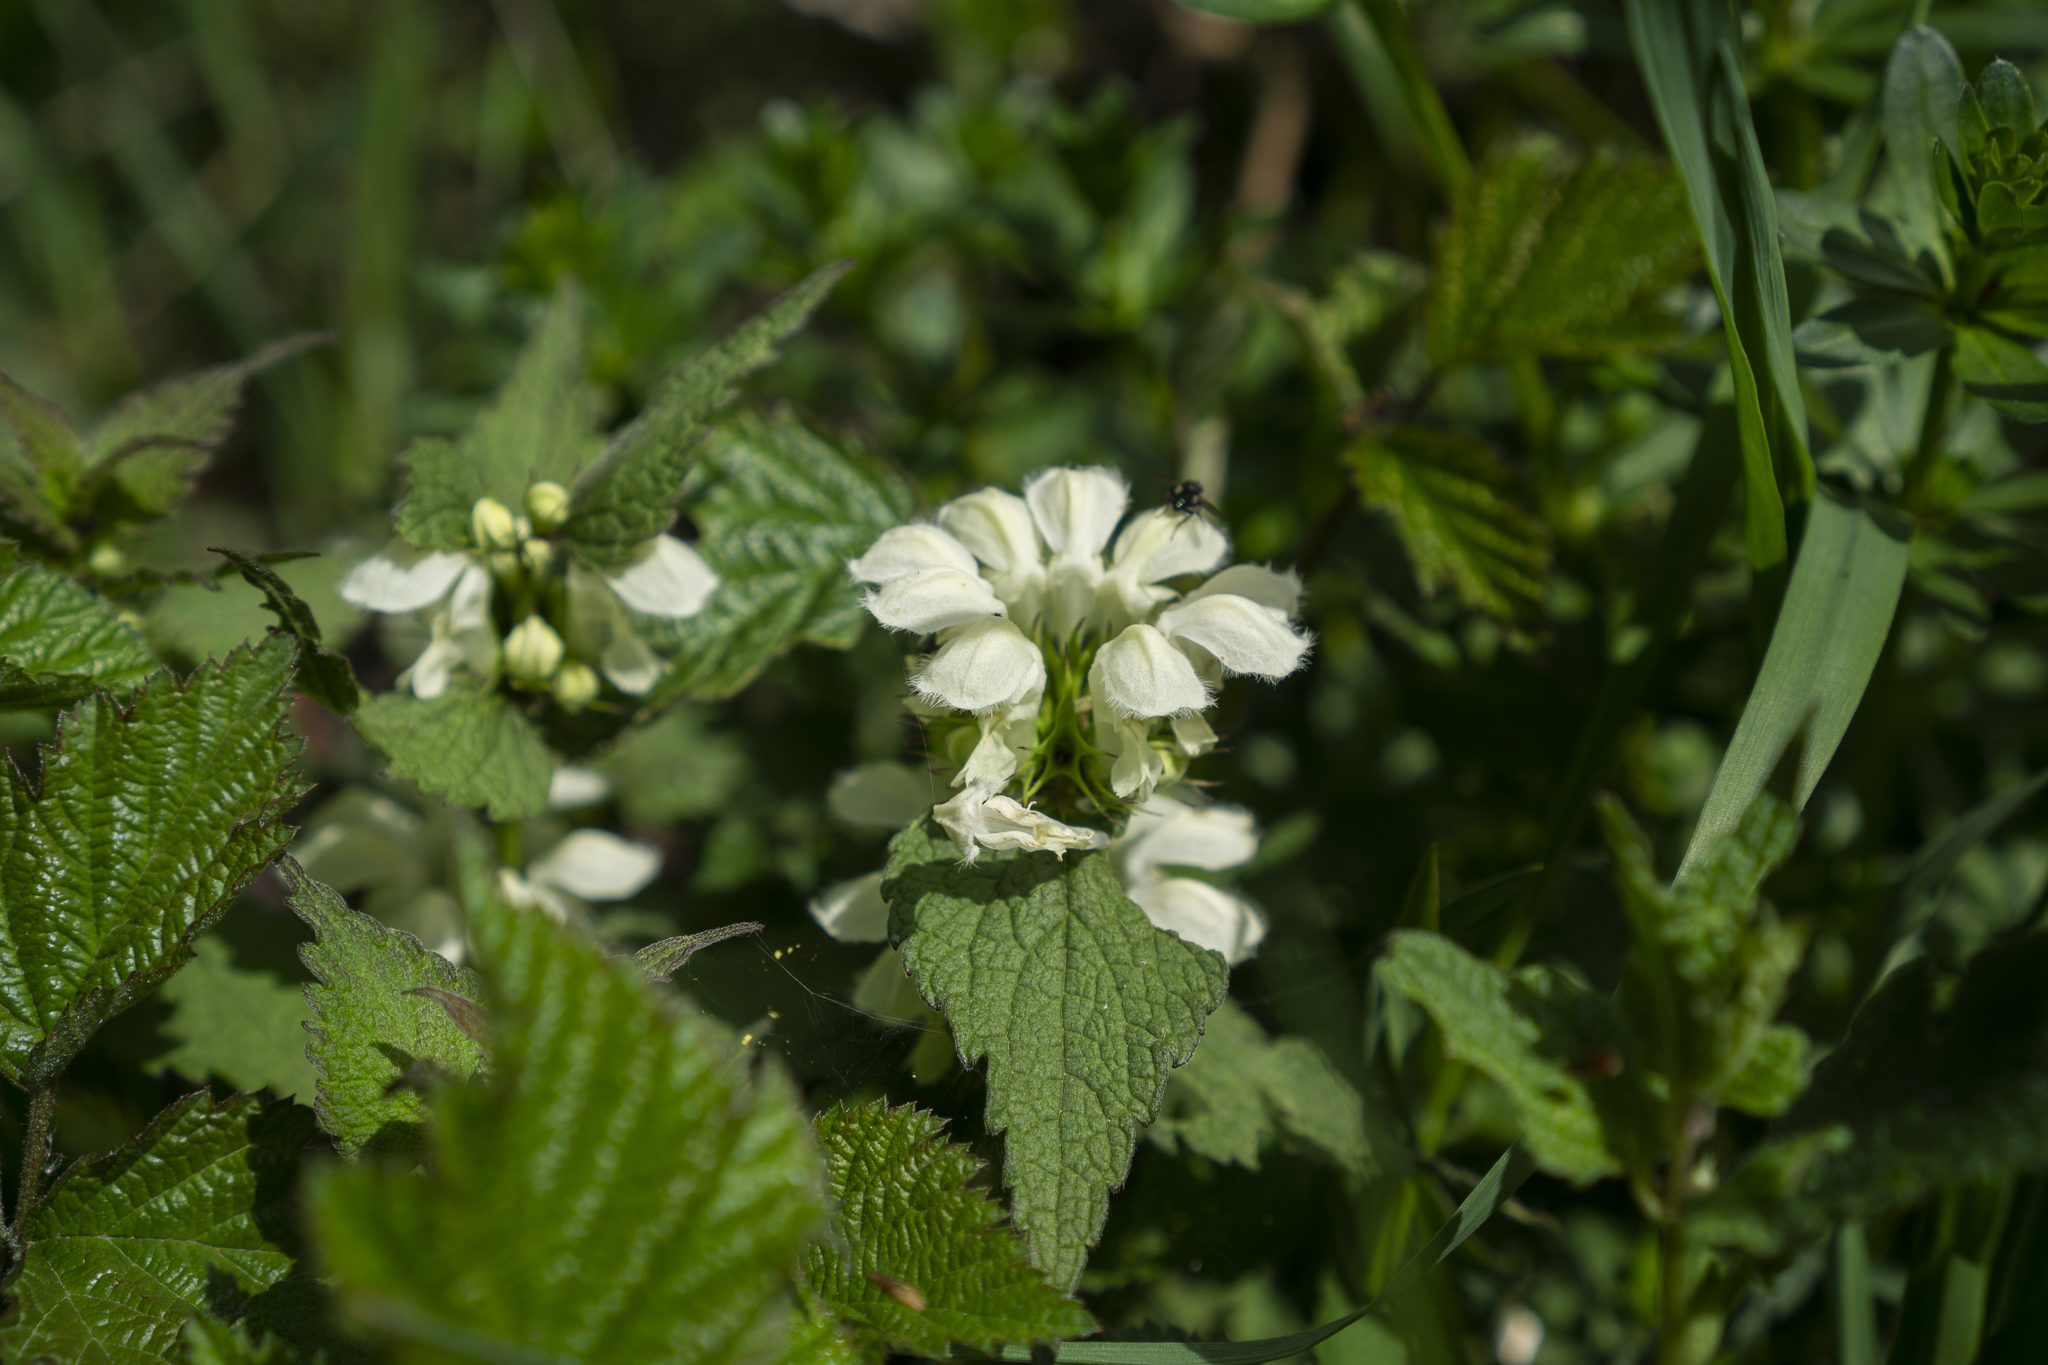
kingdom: Plantae
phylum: Tracheophyta
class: Magnoliopsida
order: Lamiales
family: Lamiaceae
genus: Lamium
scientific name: Lamium album
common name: White dead-nettle
